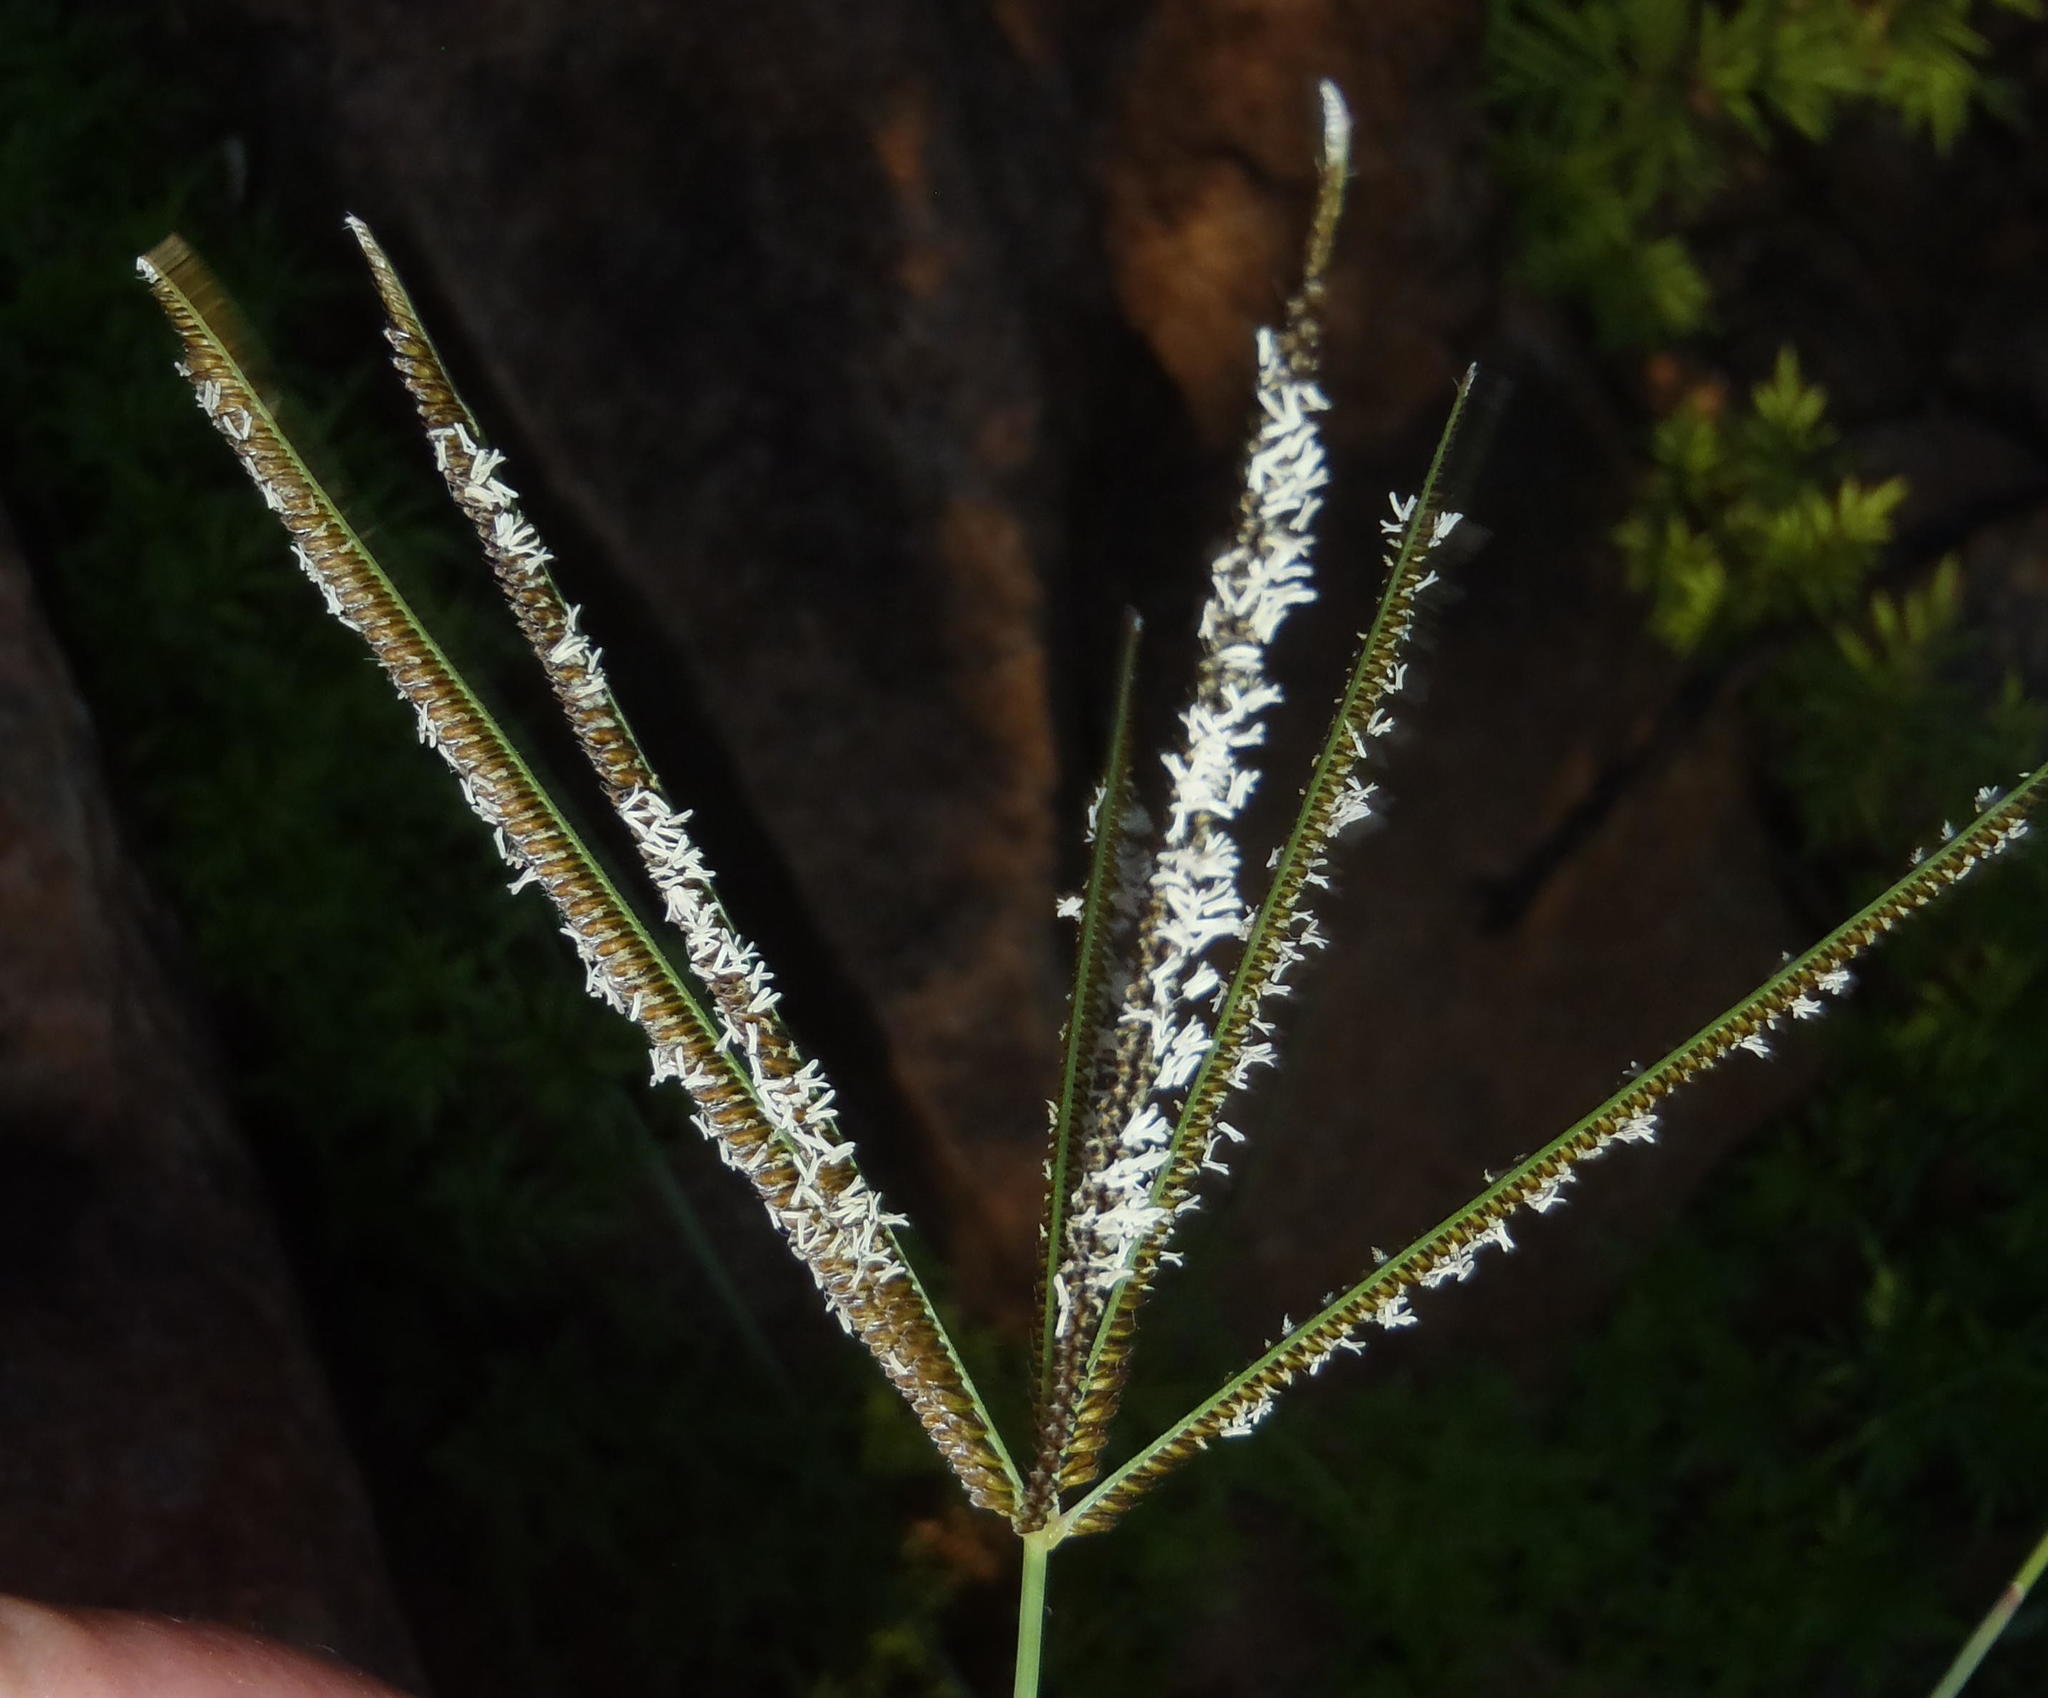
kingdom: Plantae
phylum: Tracheophyta
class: Liliopsida
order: Poales
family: Poaceae
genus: Eustachys
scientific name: Eustachys paspaloides
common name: Caribbean fingergrass
